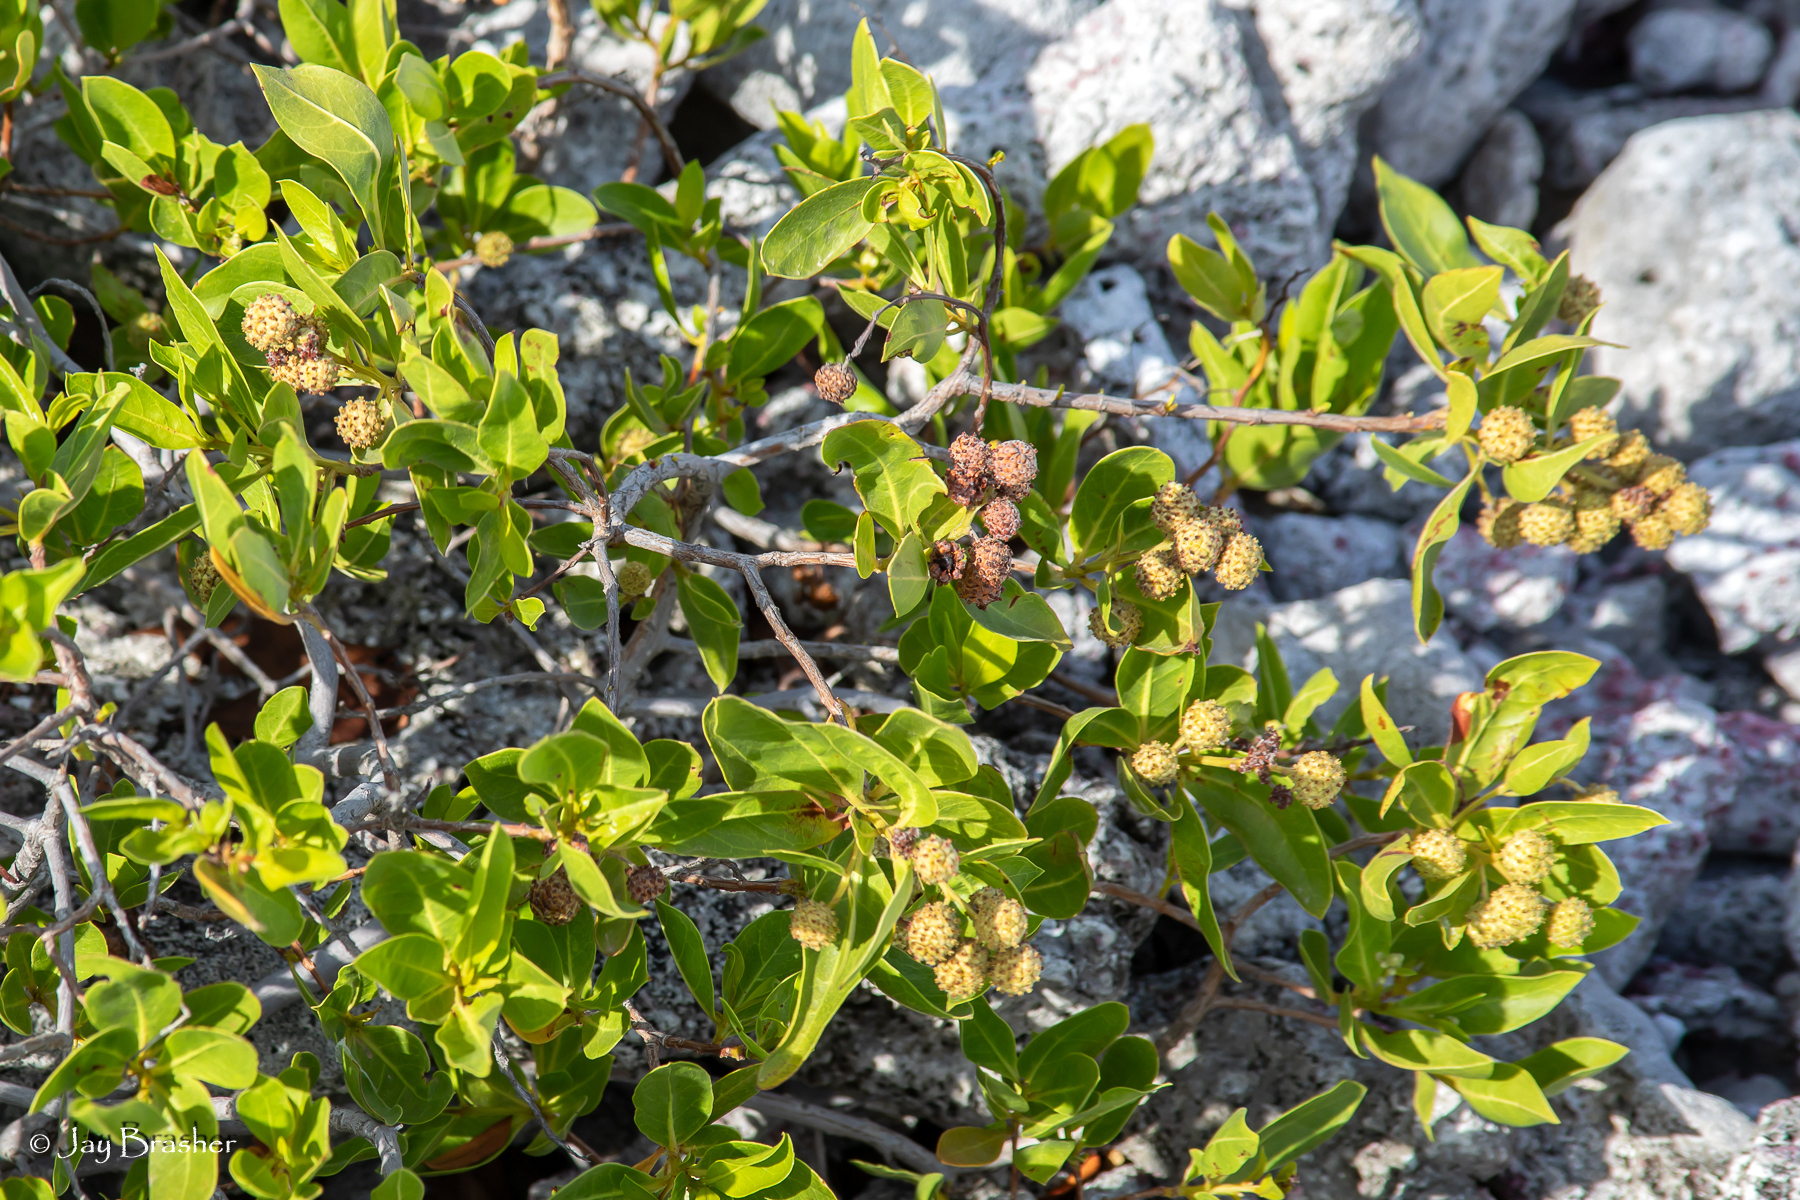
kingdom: Plantae
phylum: Tracheophyta
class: Magnoliopsida
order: Myrtales
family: Combretaceae
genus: Conocarpus
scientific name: Conocarpus erectus
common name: Button mangrove
